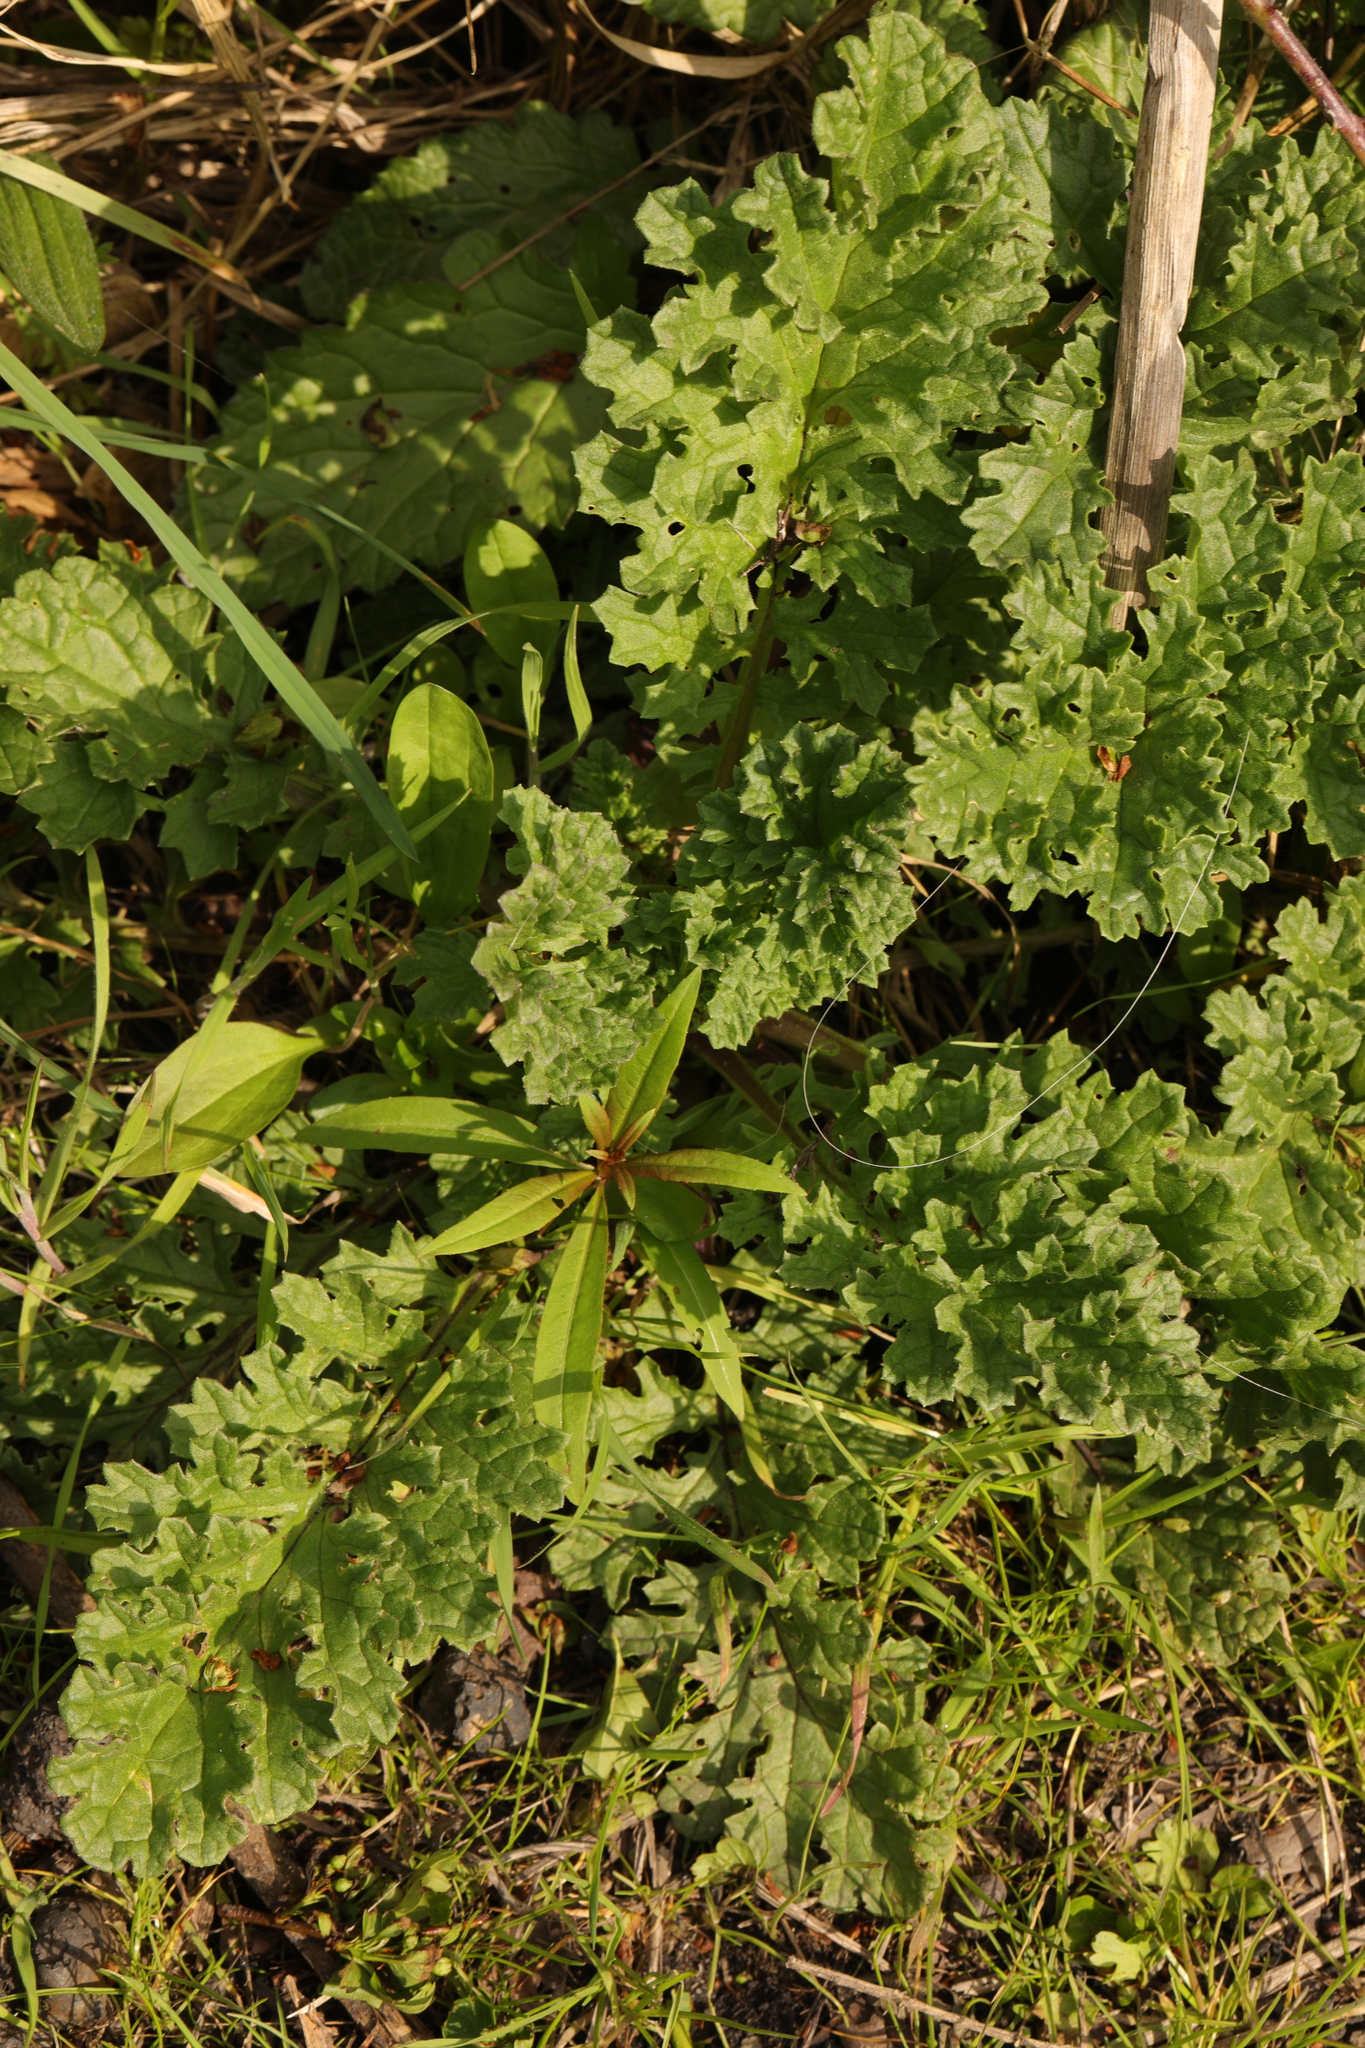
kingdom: Plantae
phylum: Tracheophyta
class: Magnoliopsida
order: Asterales
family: Asteraceae
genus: Jacobaea
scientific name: Jacobaea vulgaris
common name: Stinking willie
